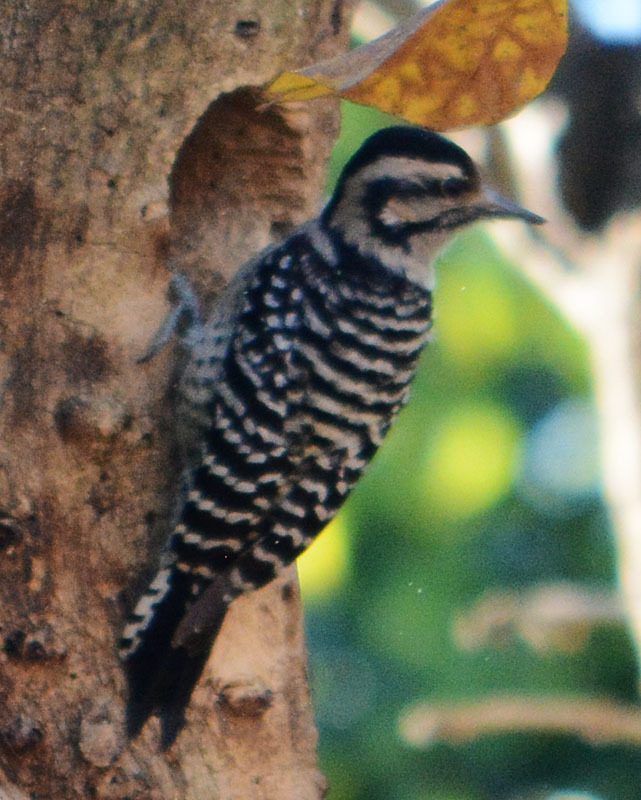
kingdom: Animalia
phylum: Chordata
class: Aves
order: Piciformes
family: Picidae
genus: Dryobates
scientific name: Dryobates scalaris
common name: Ladder-backed woodpecker
